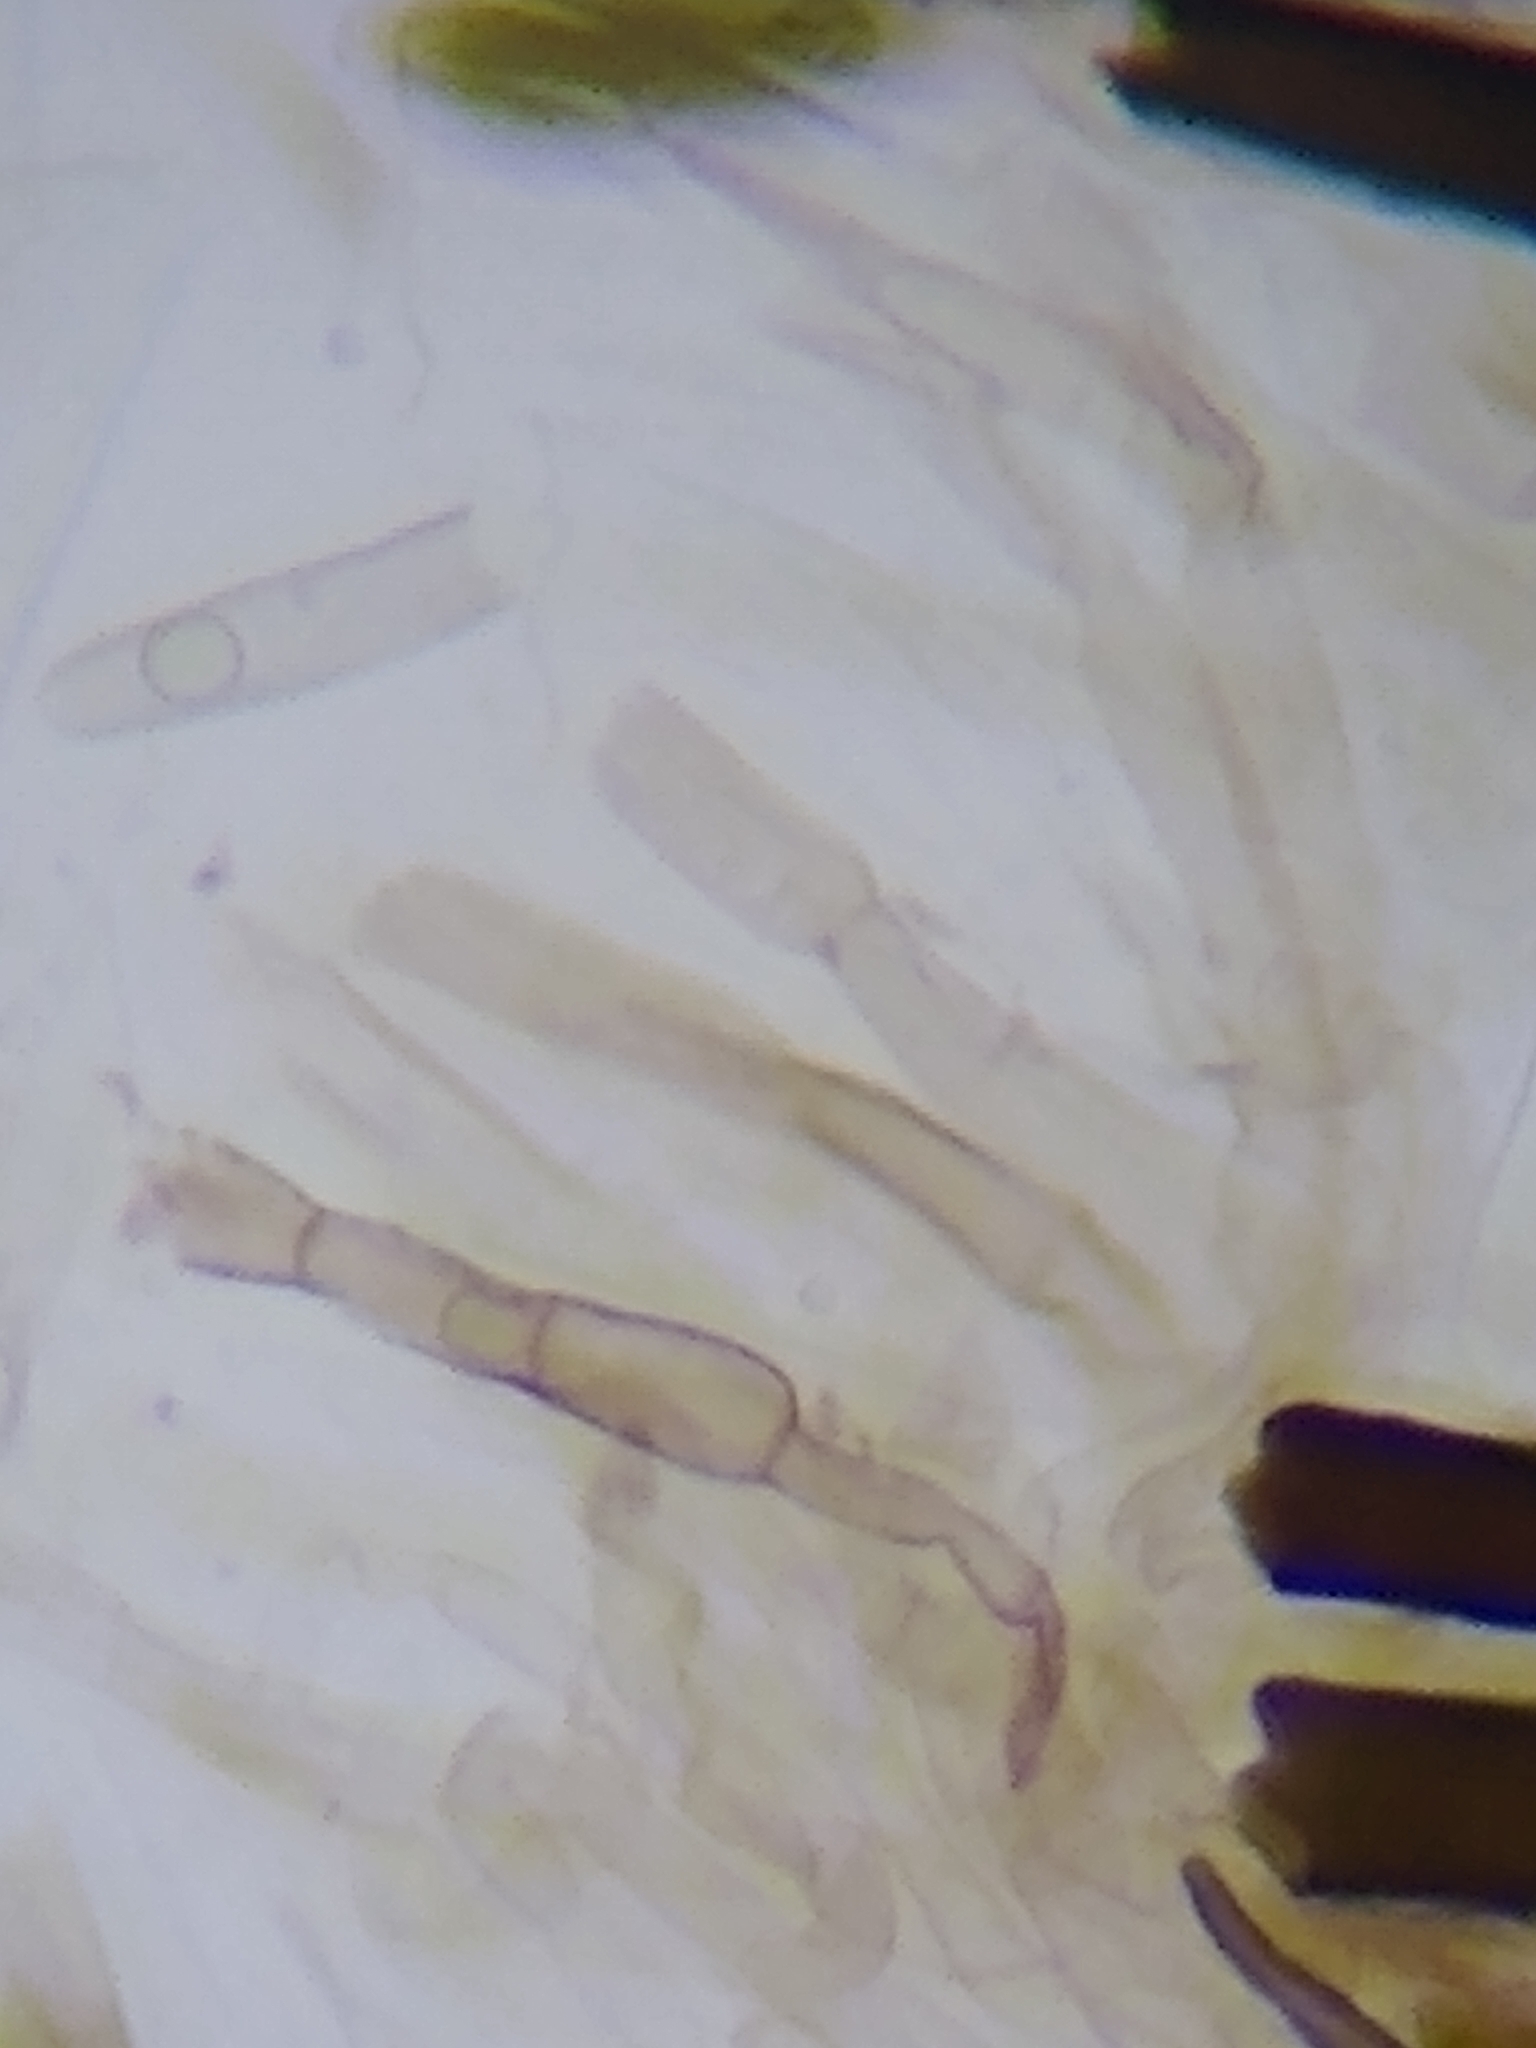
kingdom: Fungi
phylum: Ascomycota
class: Geoglossomycetes
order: Geoglossales
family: Geoglossaceae
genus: Trichoglossum
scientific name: Trichoglossum farlowii
